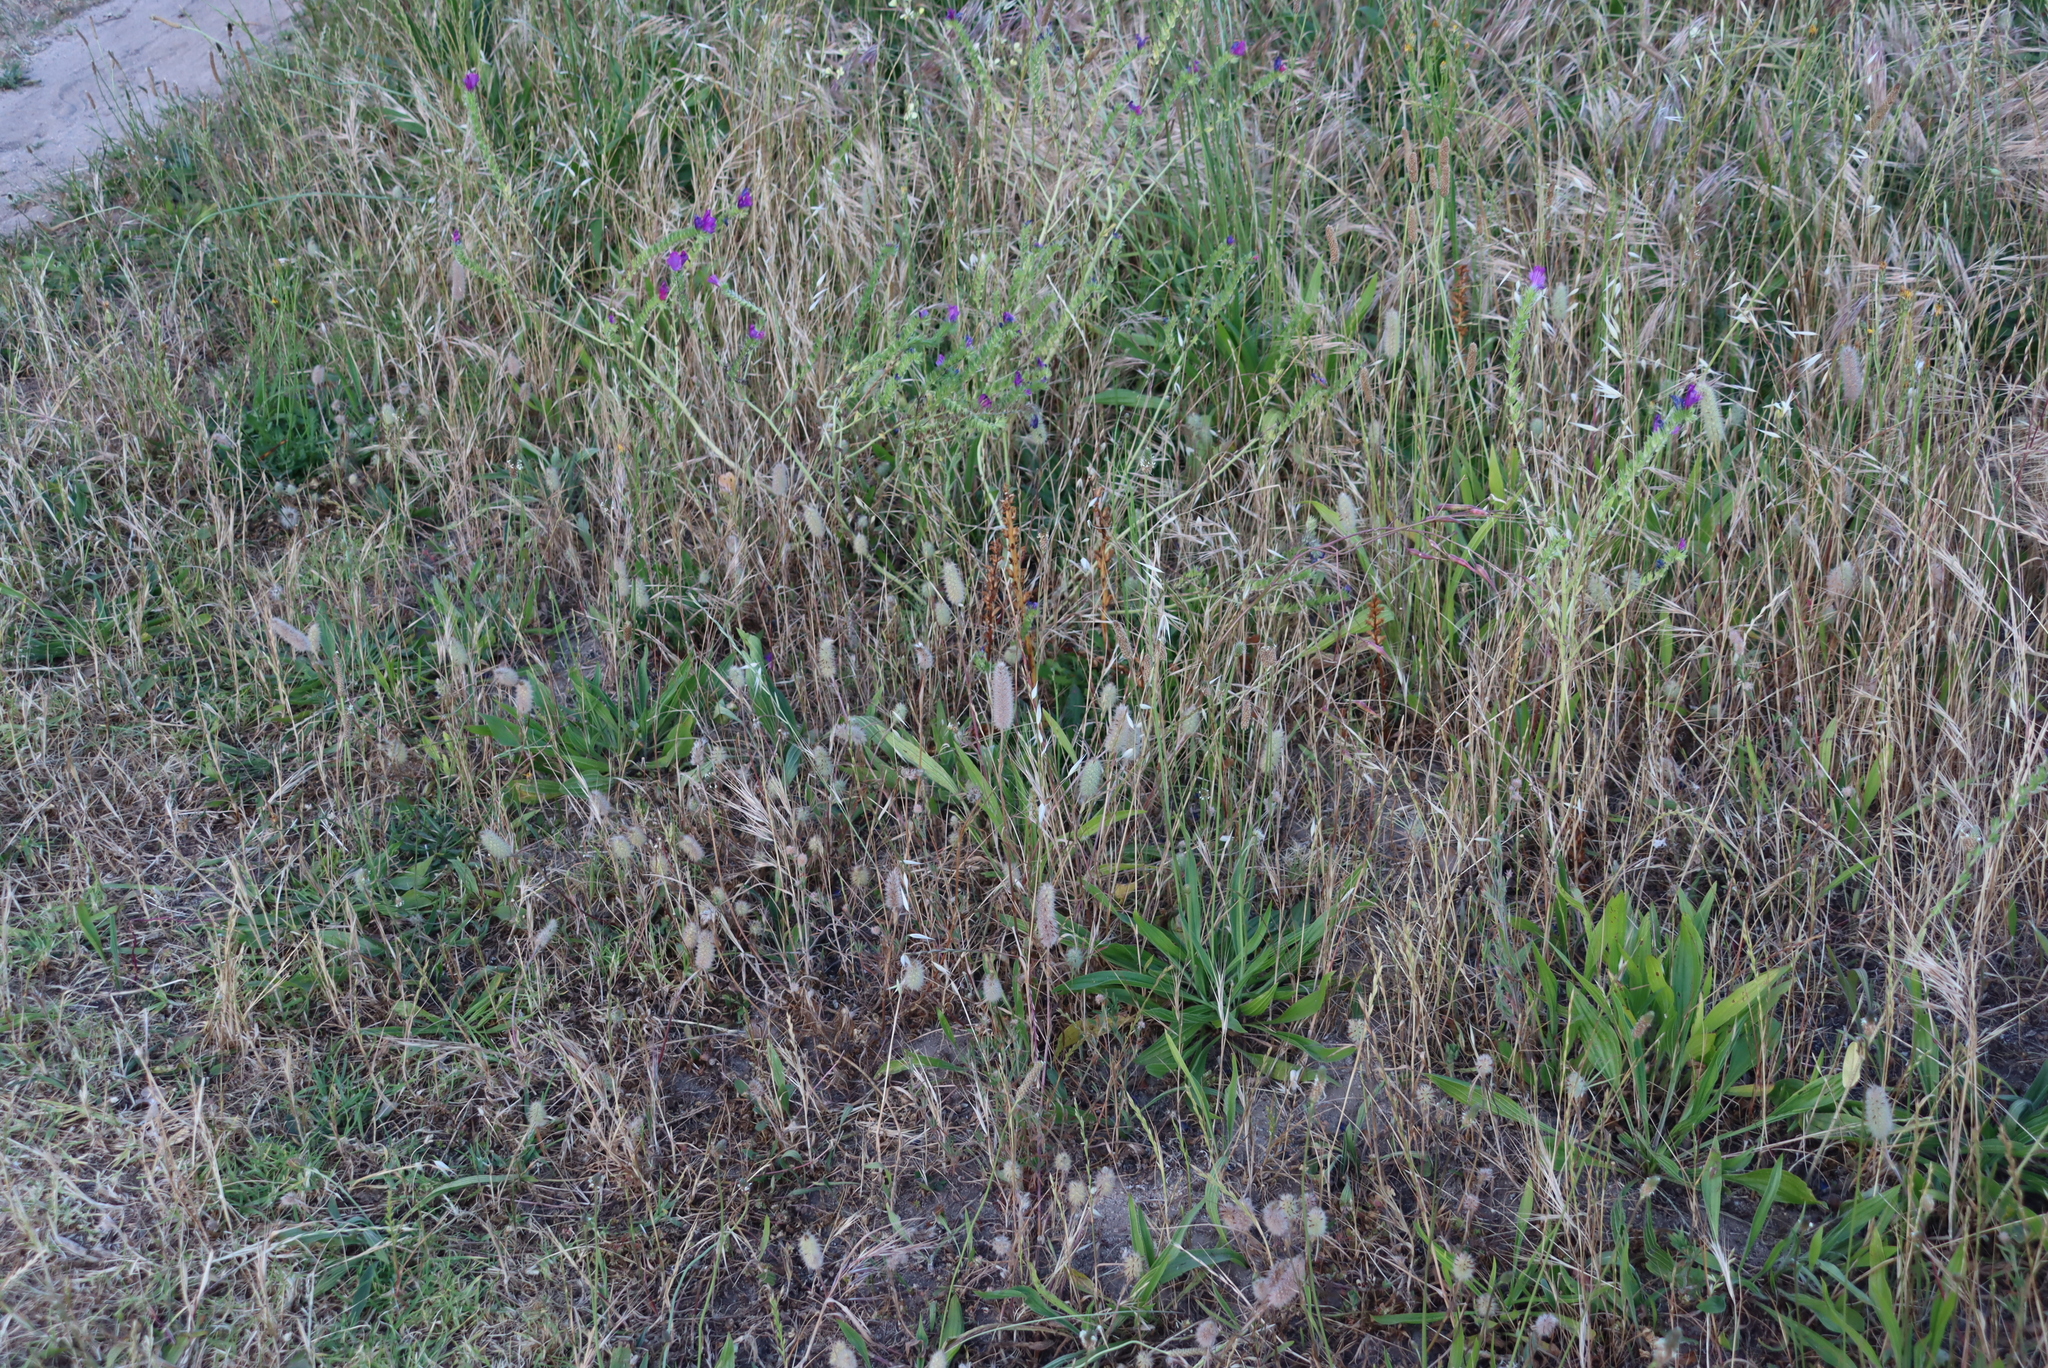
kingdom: Plantae
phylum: Tracheophyta
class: Magnoliopsida
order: Boraginales
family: Boraginaceae
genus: Echium
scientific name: Echium plantagineum
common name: Purple viper's-bugloss
